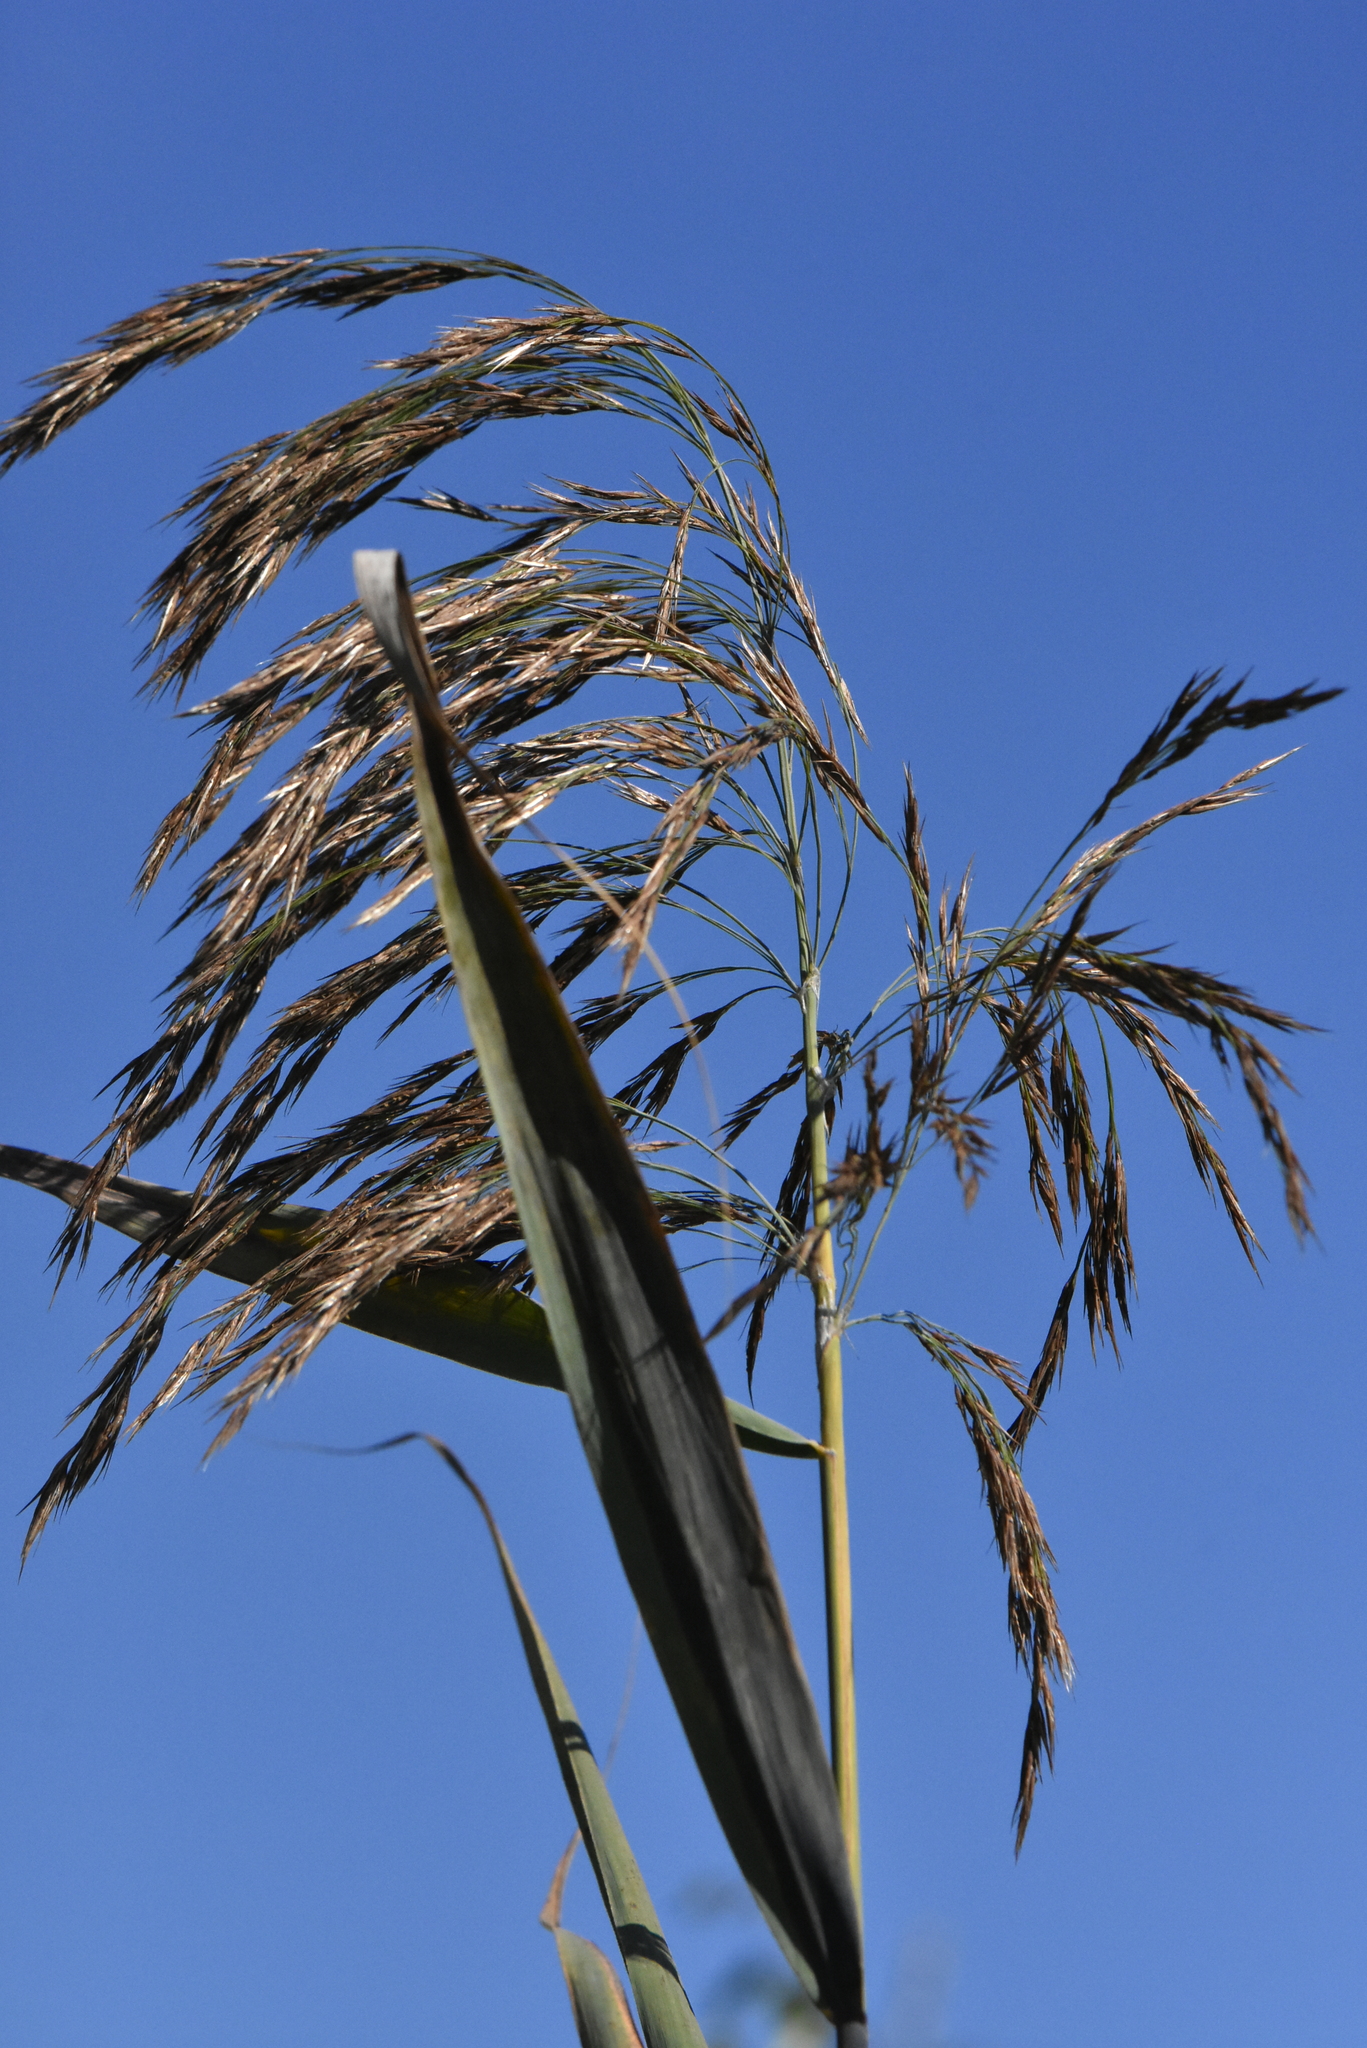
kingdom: Plantae
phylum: Tracheophyta
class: Liliopsida
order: Poales
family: Poaceae
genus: Phragmites
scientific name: Phragmites australis
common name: Common reed
